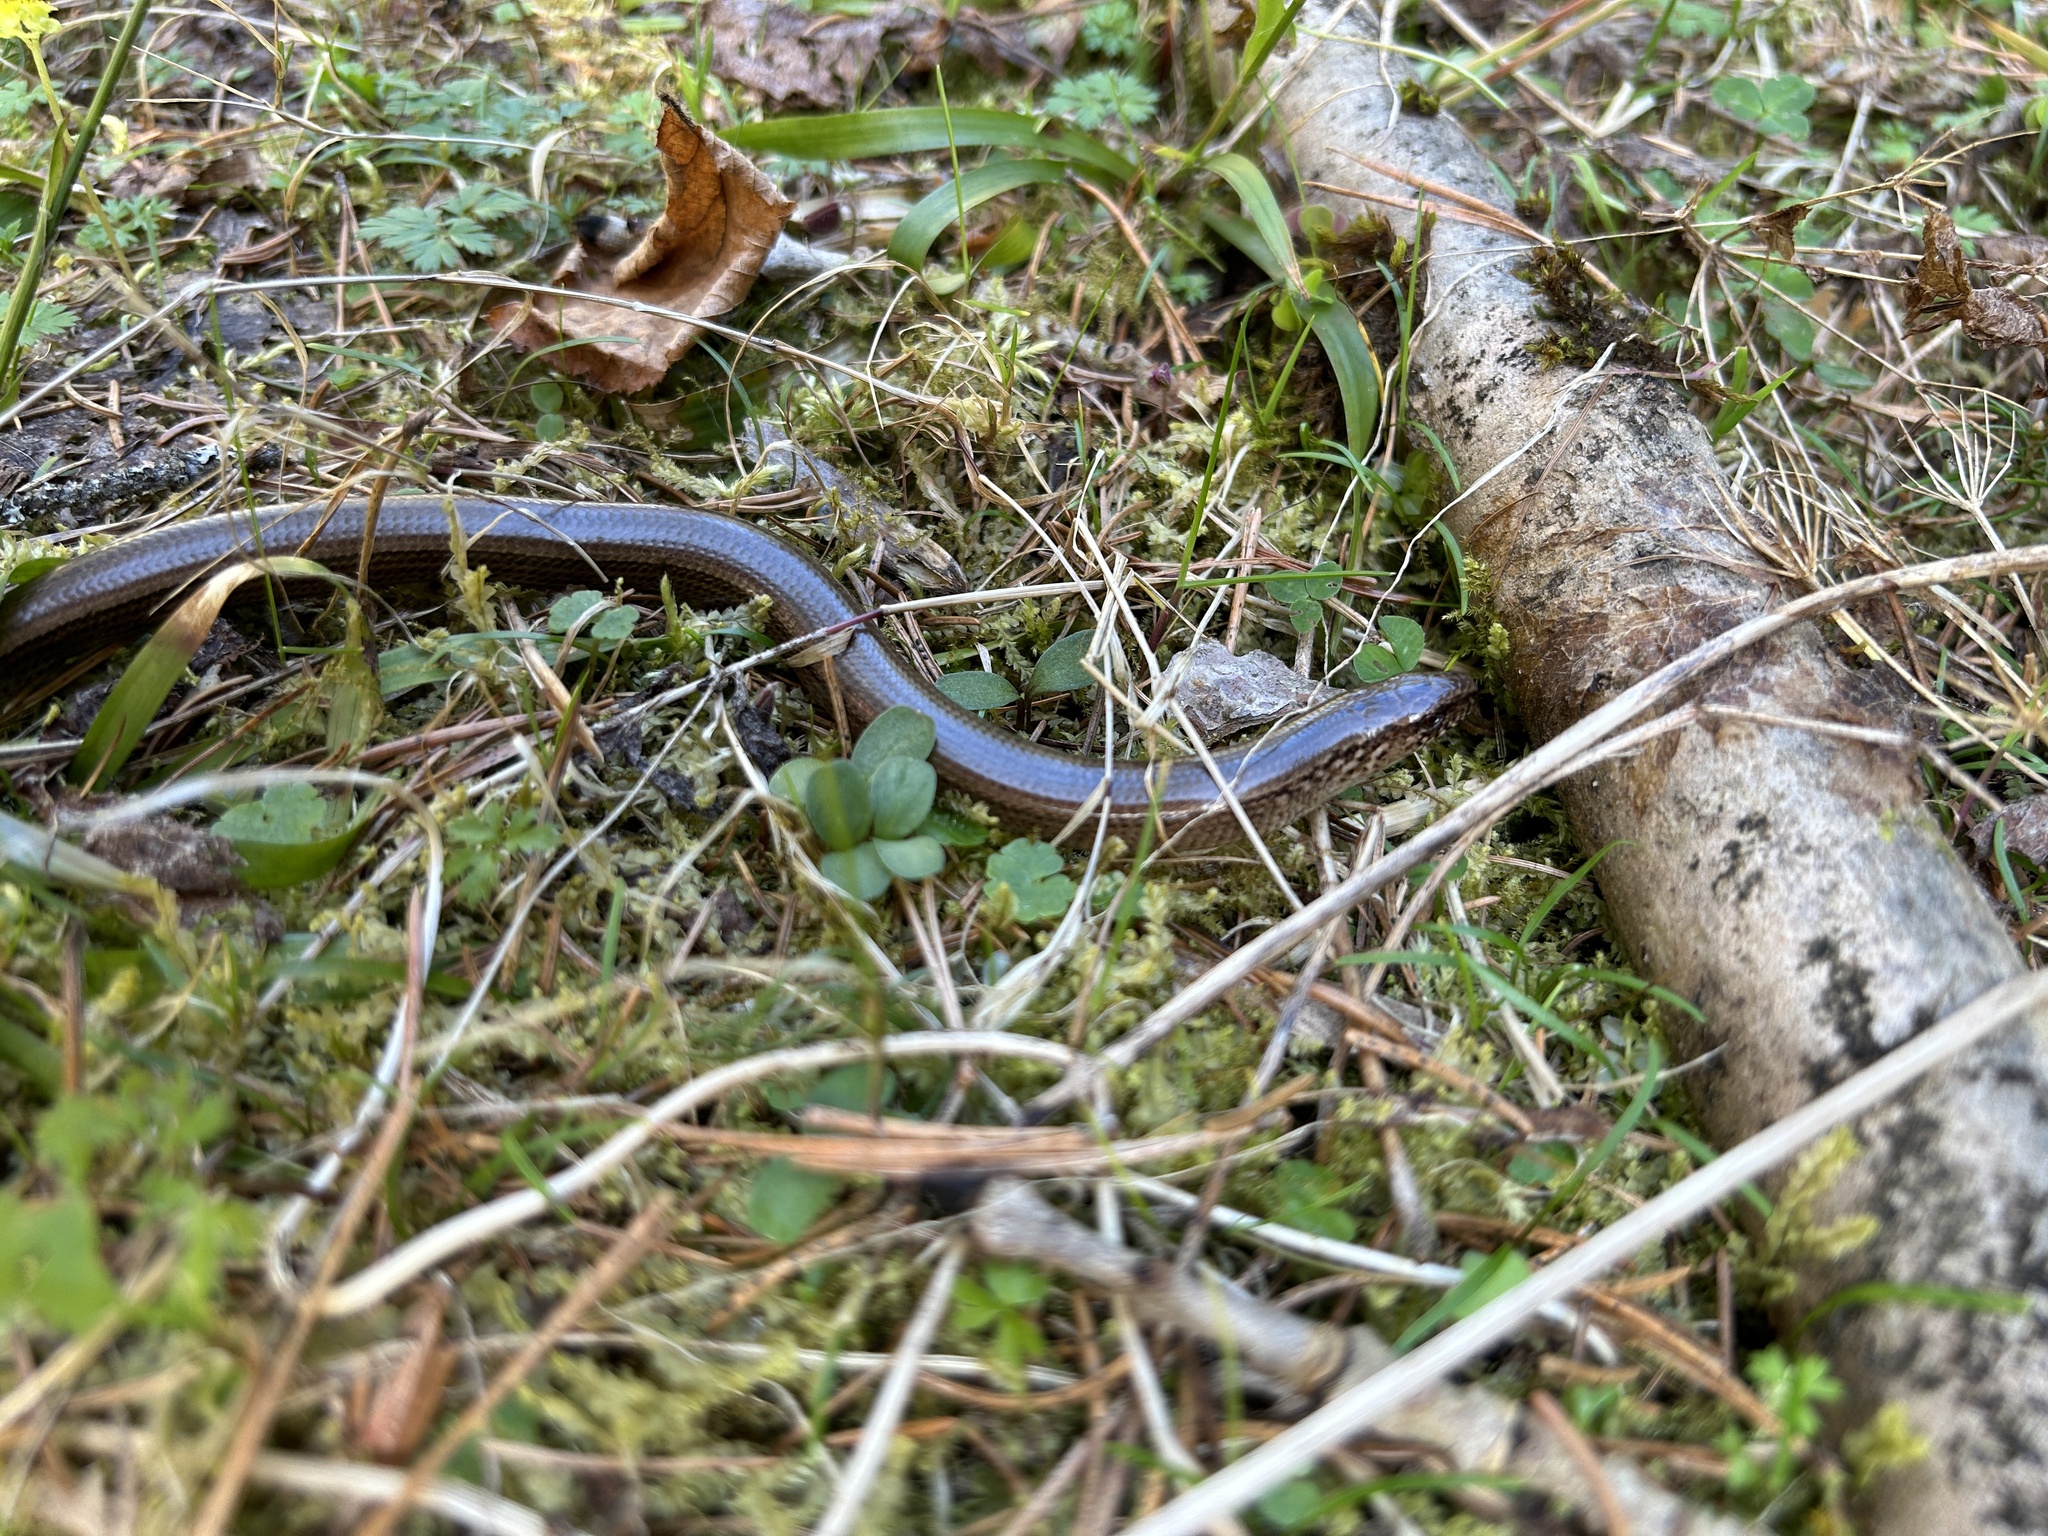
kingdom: Animalia
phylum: Chordata
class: Squamata
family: Anguidae
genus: Anguis
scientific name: Anguis fragilis
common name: Slow worm
